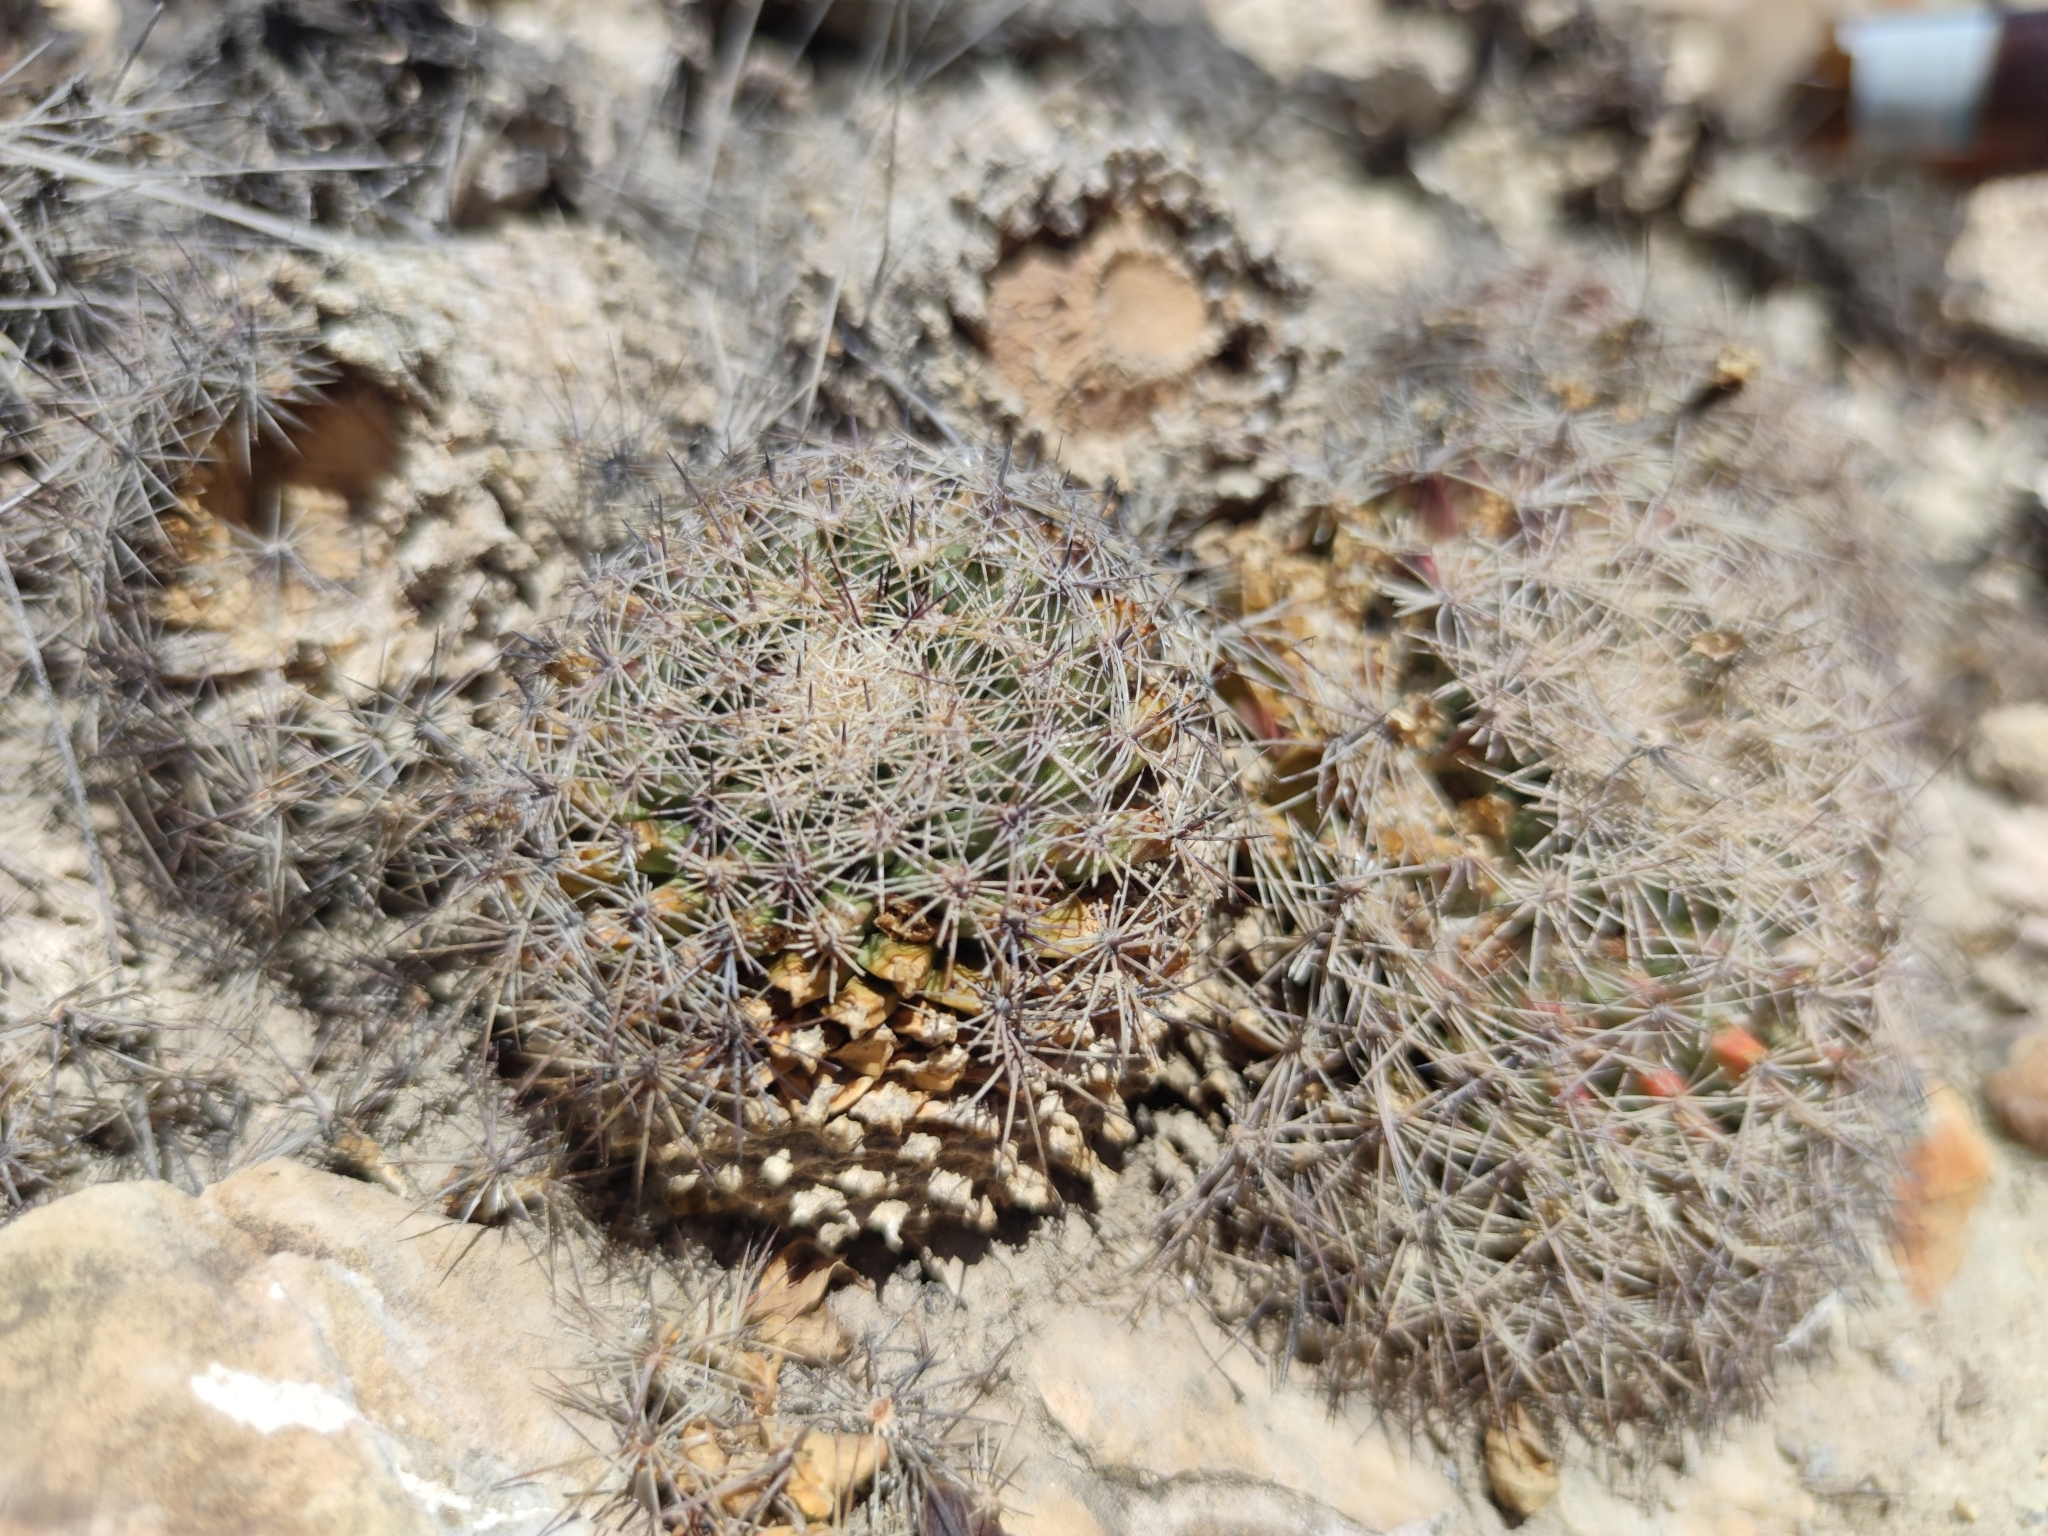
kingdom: Plantae
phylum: Tracheophyta
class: Magnoliopsida
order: Caryophyllales
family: Cactaceae
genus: Mammillaria
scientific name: Mammillaria heyderi
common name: Little nipple cactus
